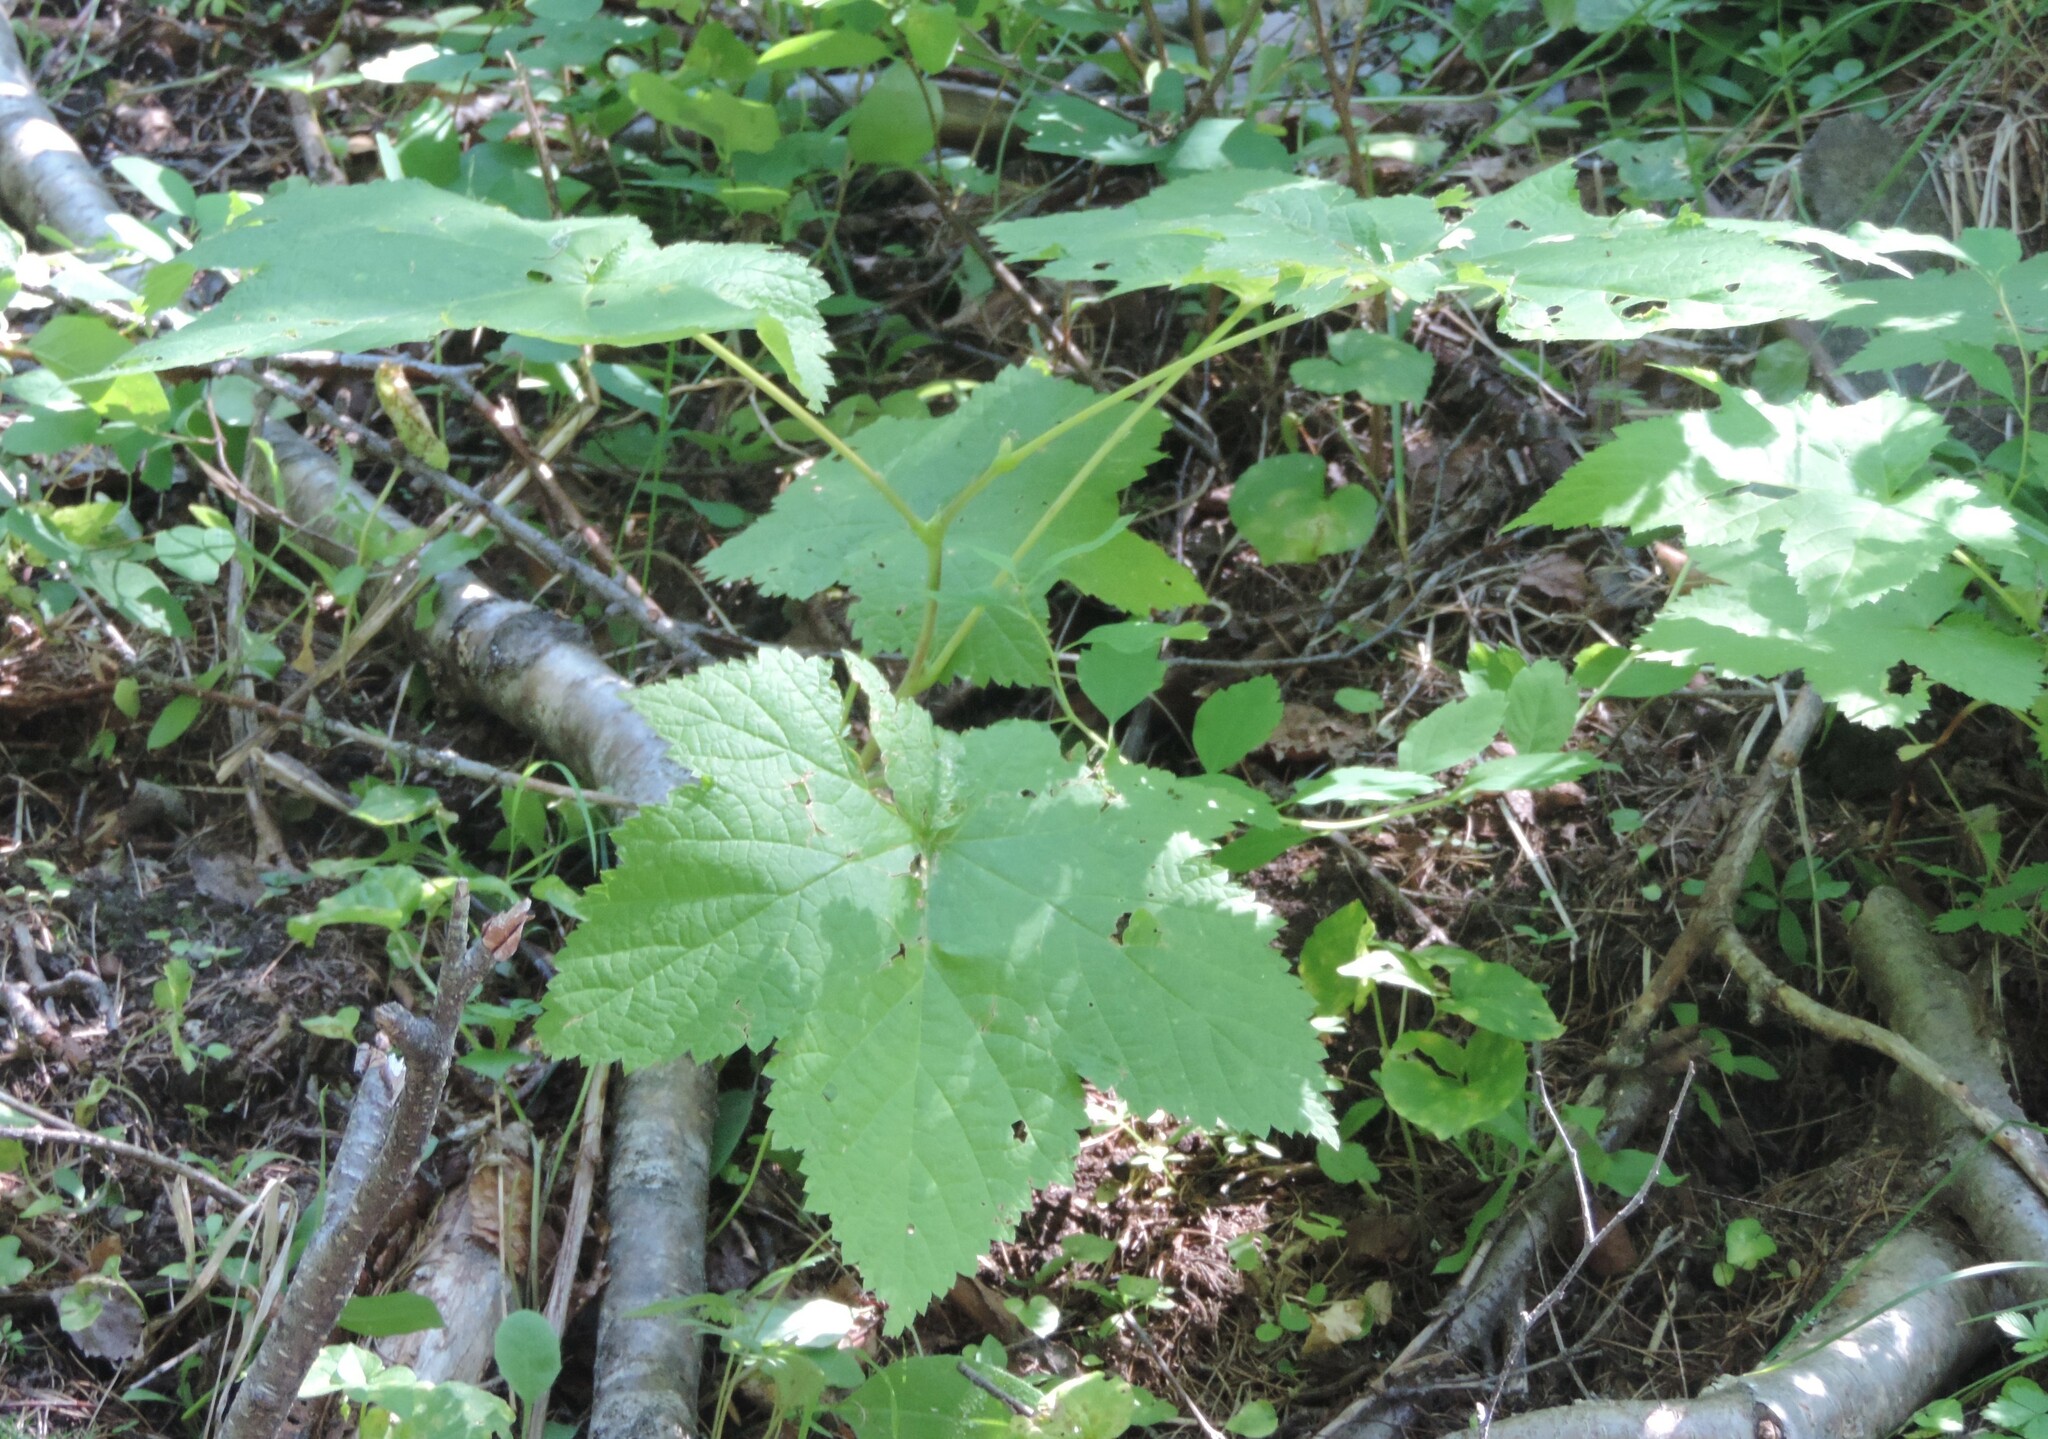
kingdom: Plantae
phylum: Tracheophyta
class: Magnoliopsida
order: Rosales
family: Rosaceae
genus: Rubus
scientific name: Rubus parviflorus
